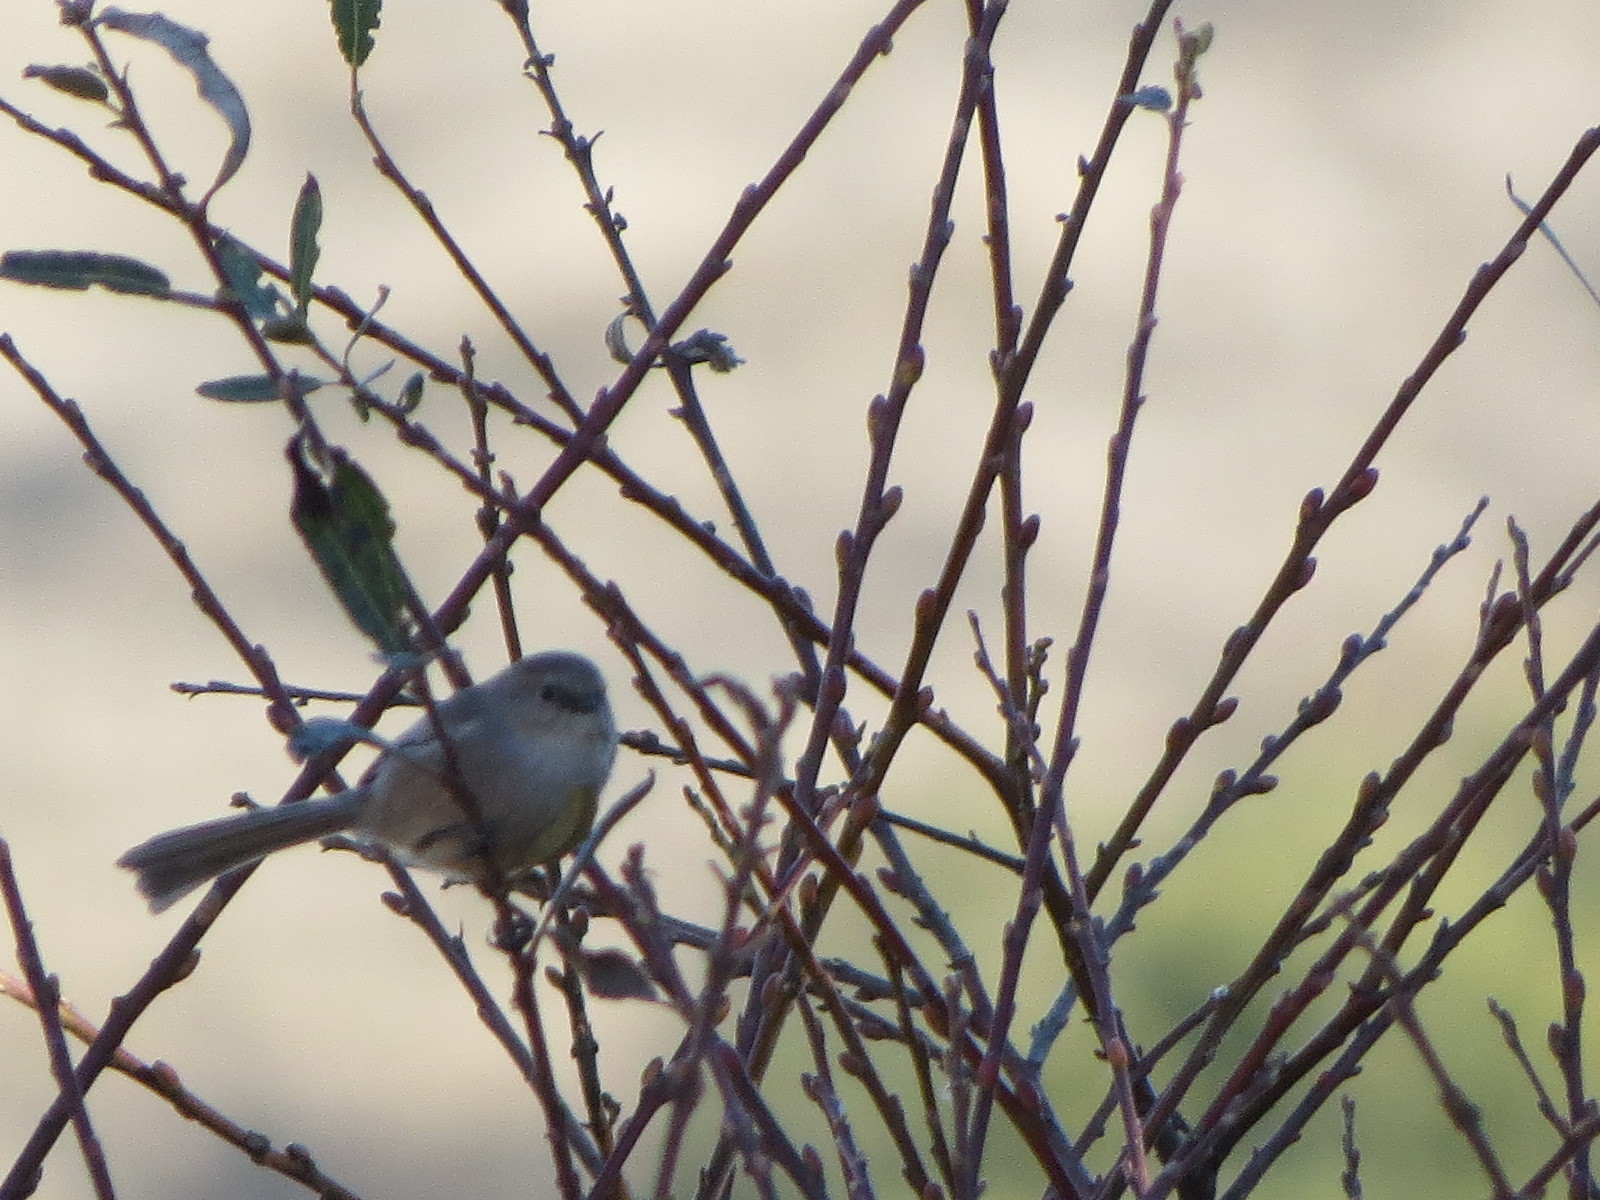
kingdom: Animalia
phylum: Chordata
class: Aves
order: Passeriformes
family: Aegithalidae
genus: Psaltriparus
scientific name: Psaltriparus minimus
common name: American bushtit
